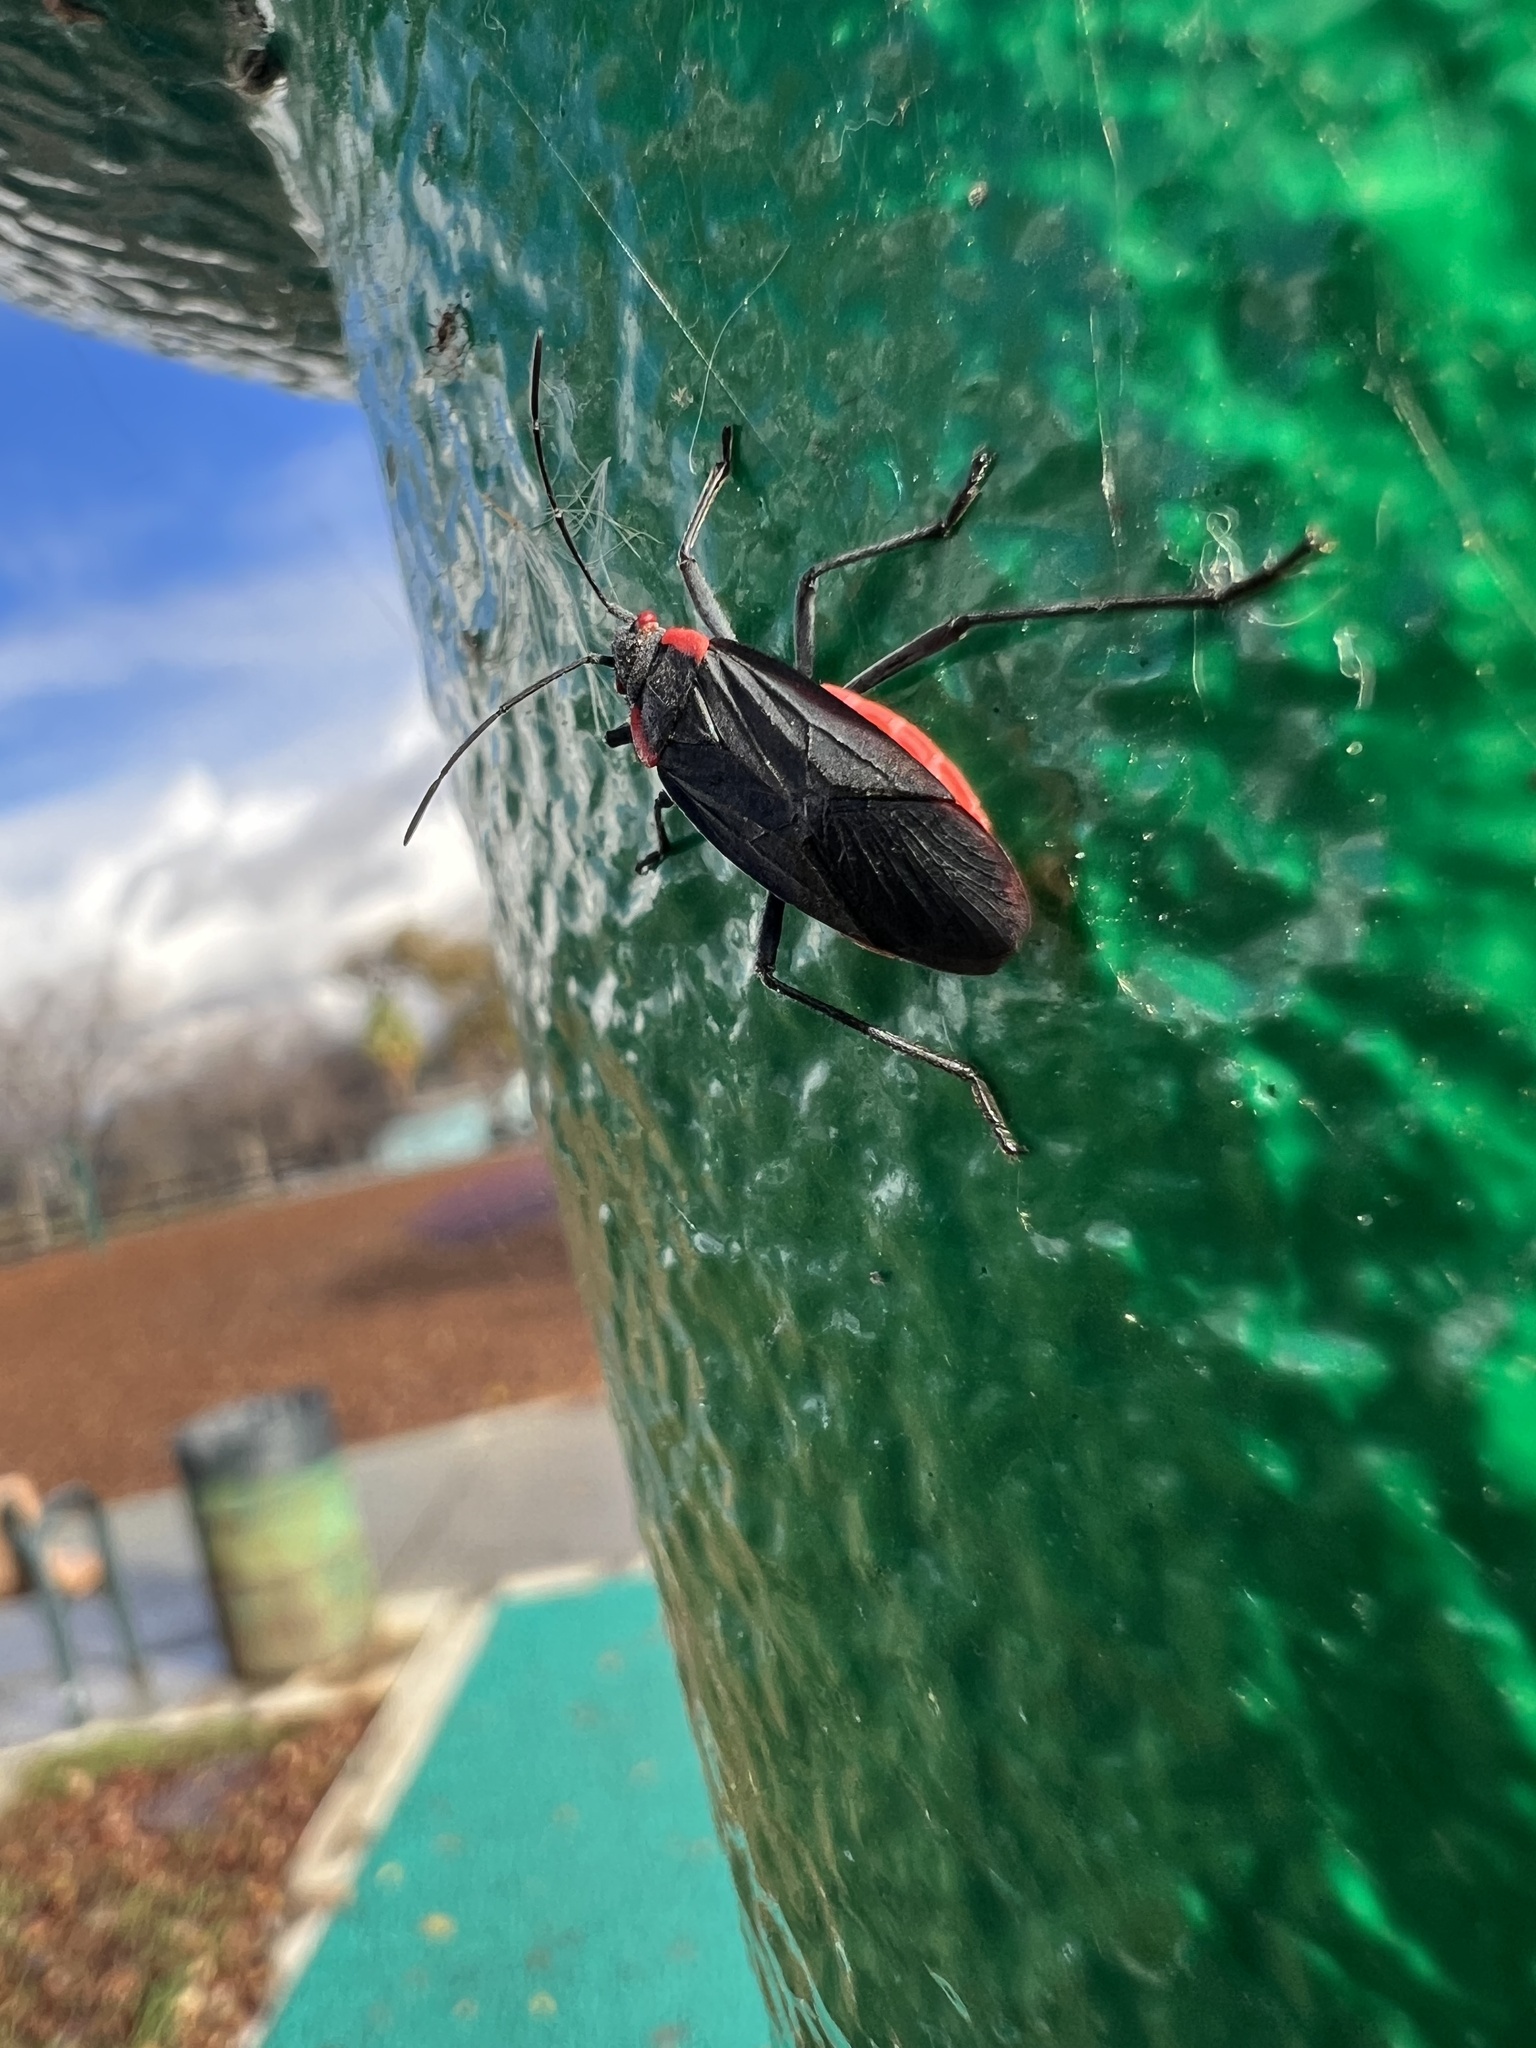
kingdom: Animalia
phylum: Arthropoda
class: Insecta
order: Hemiptera
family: Rhopalidae
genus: Jadera
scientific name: Jadera haematoloma
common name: Red-shouldered bug
